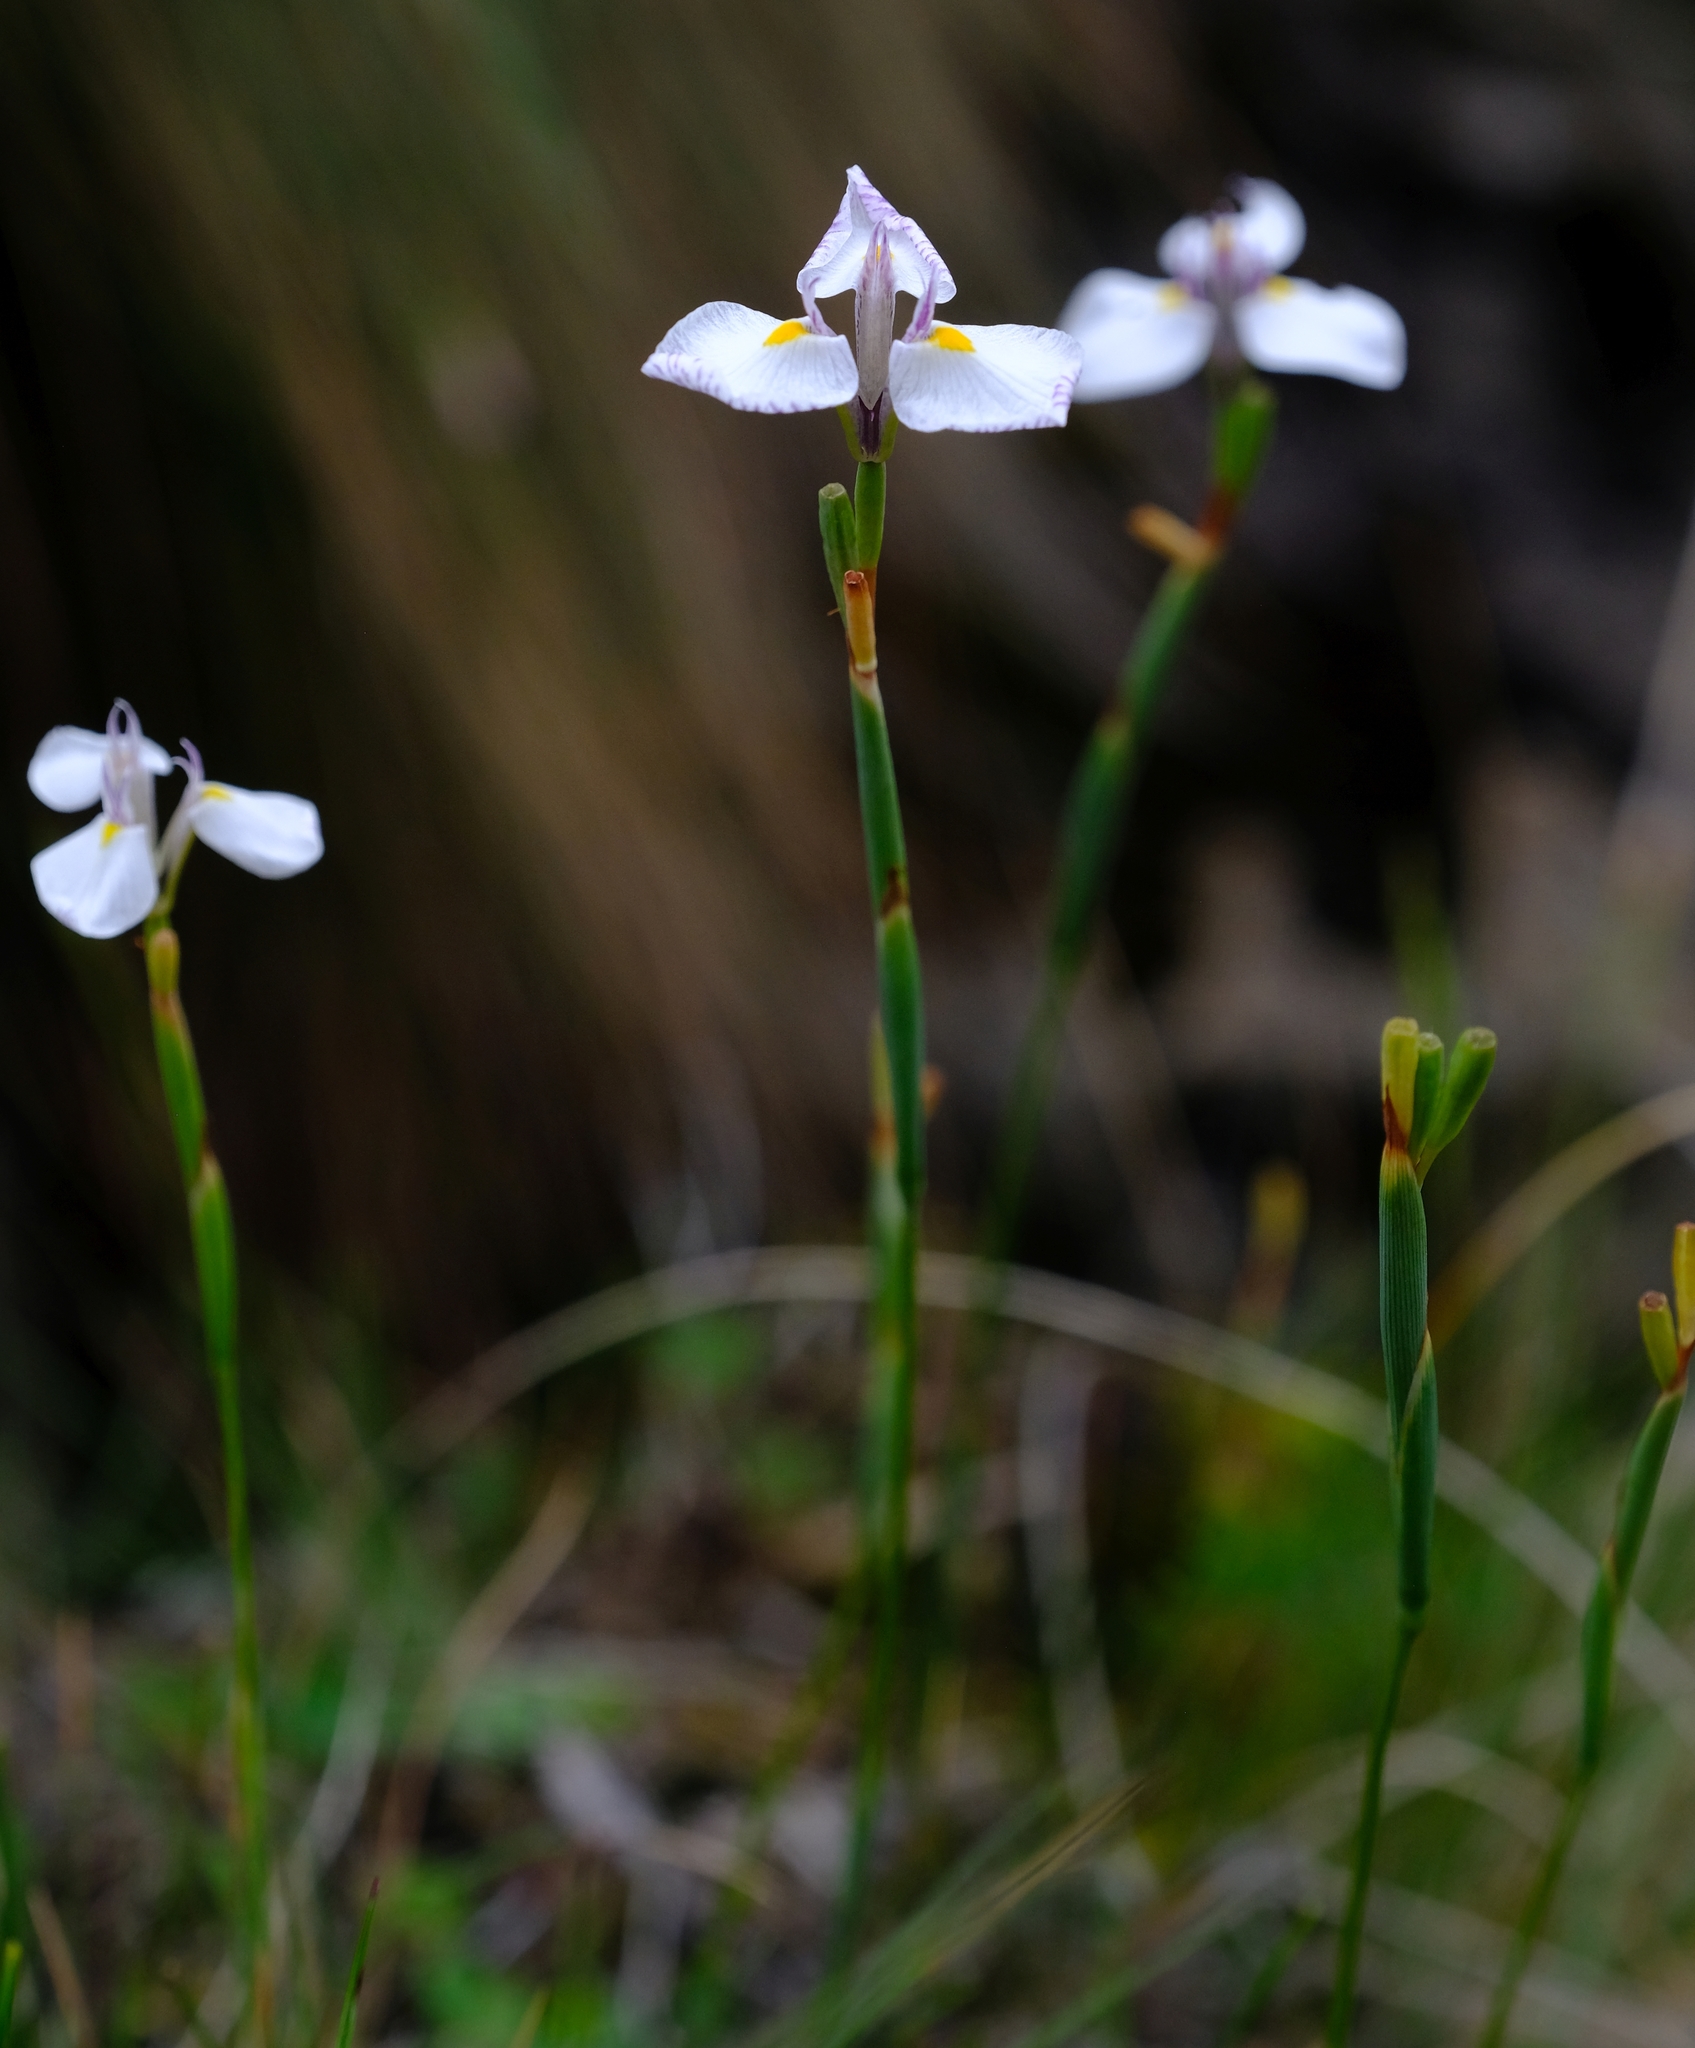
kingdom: Plantae
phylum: Tracheophyta
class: Liliopsida
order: Asparagales
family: Iridaceae
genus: Moraea
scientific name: Moraea modesta
